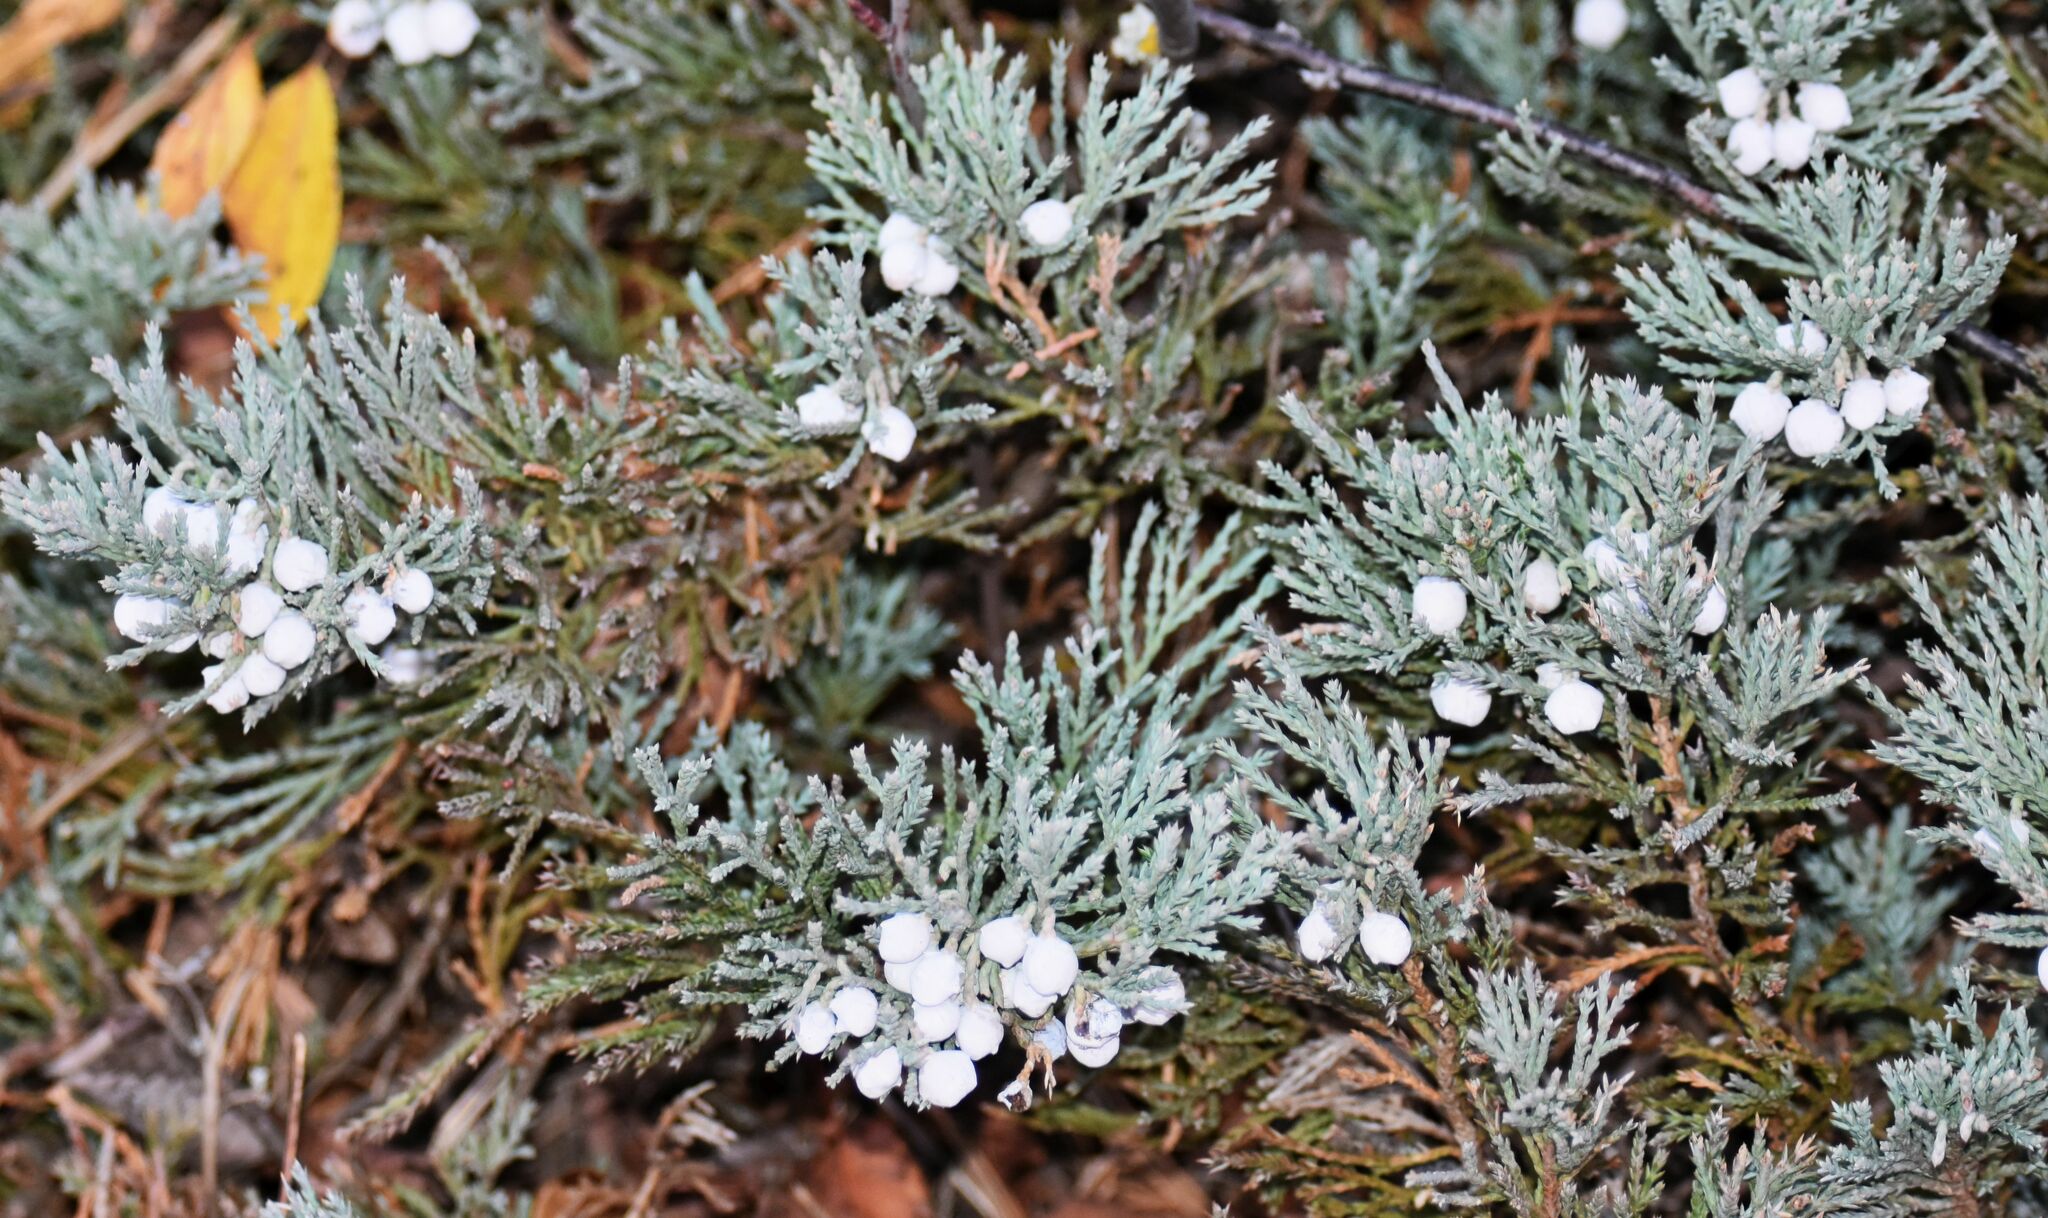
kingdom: Plantae
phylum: Tracheophyta
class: Pinopsida
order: Pinales
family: Cupressaceae
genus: Juniperus
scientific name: Juniperus horizontalis
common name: Creeping juniper
